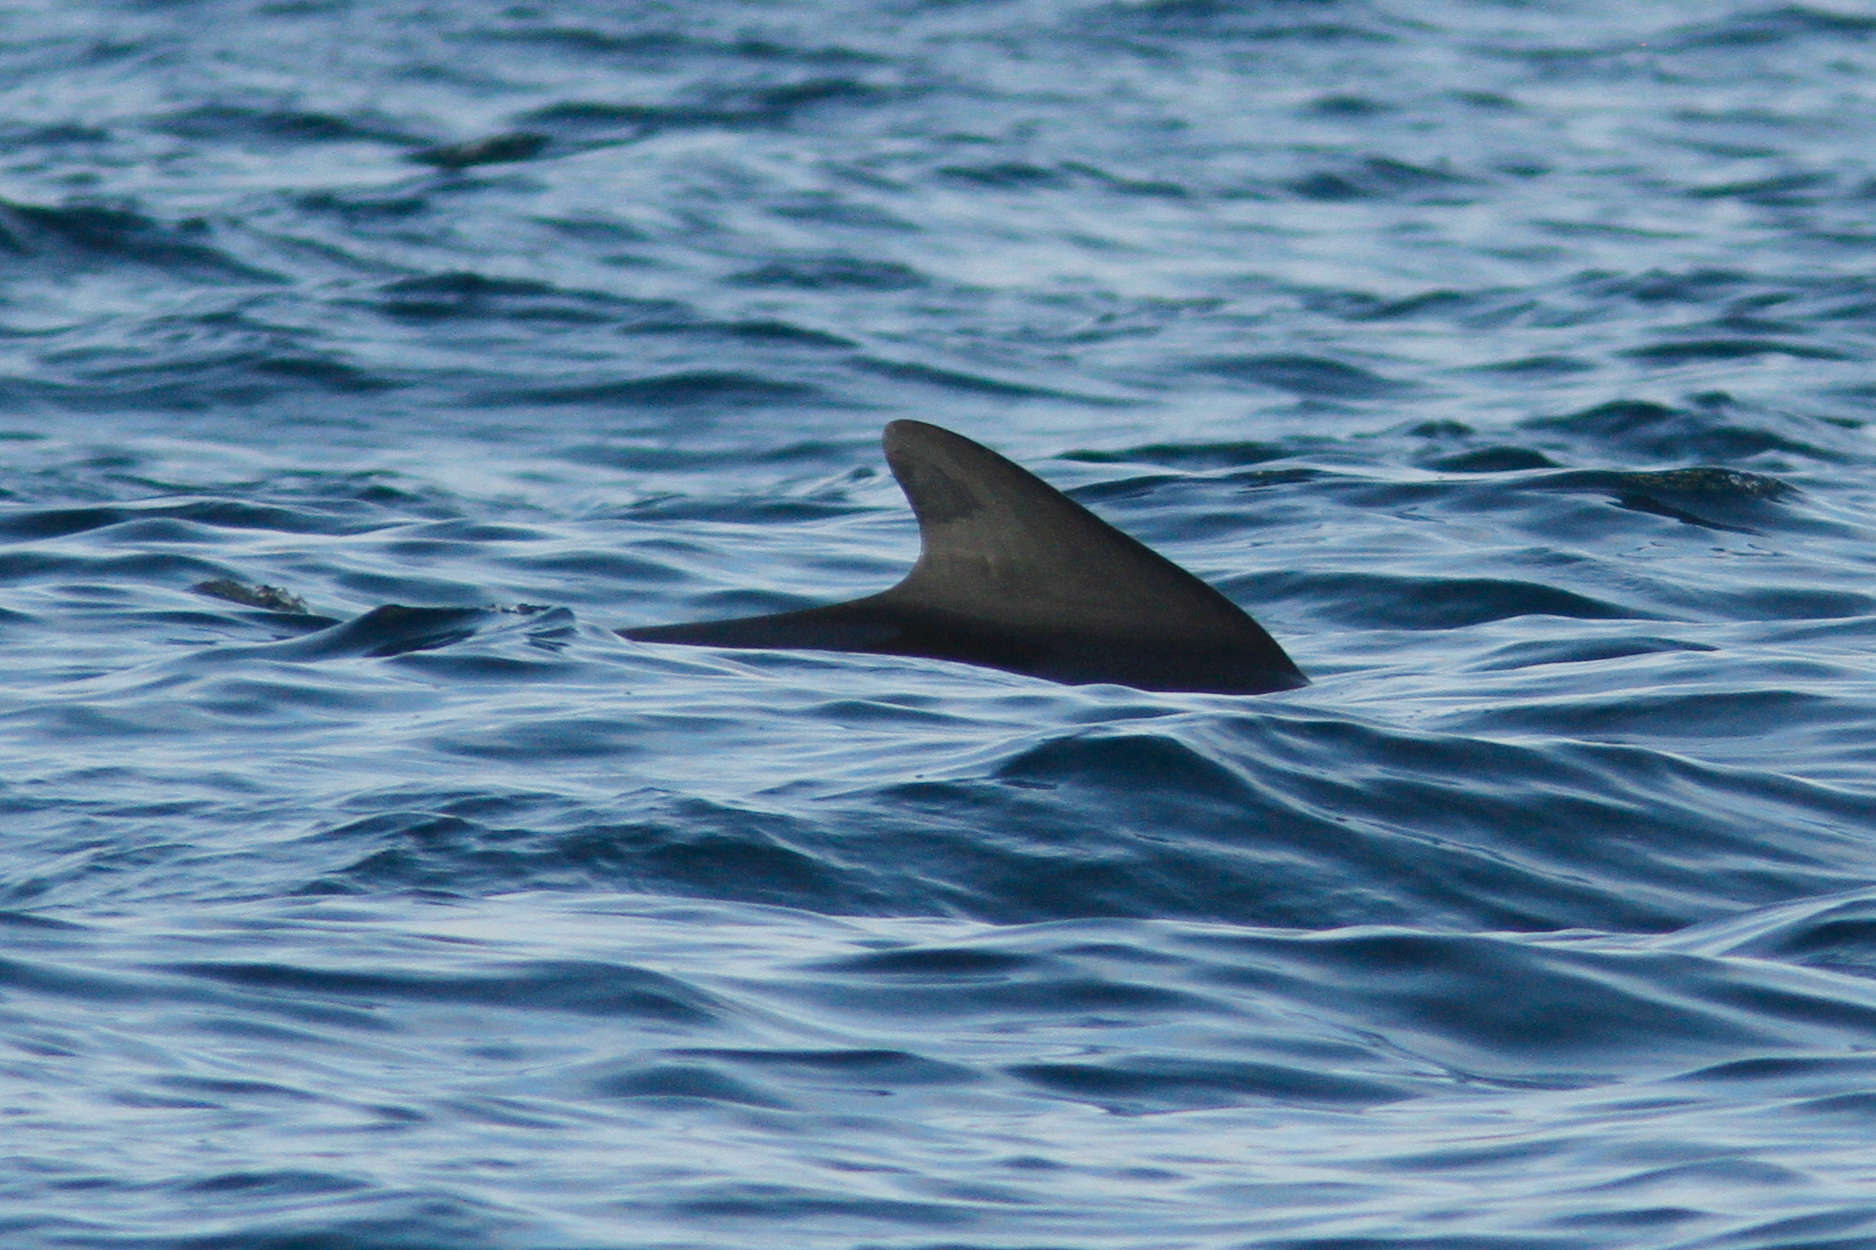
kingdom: Animalia
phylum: Chordata
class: Mammalia
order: Cetacea
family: Delphinidae
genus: Globicephala
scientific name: Globicephala melas
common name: Long-finned pilot whale
